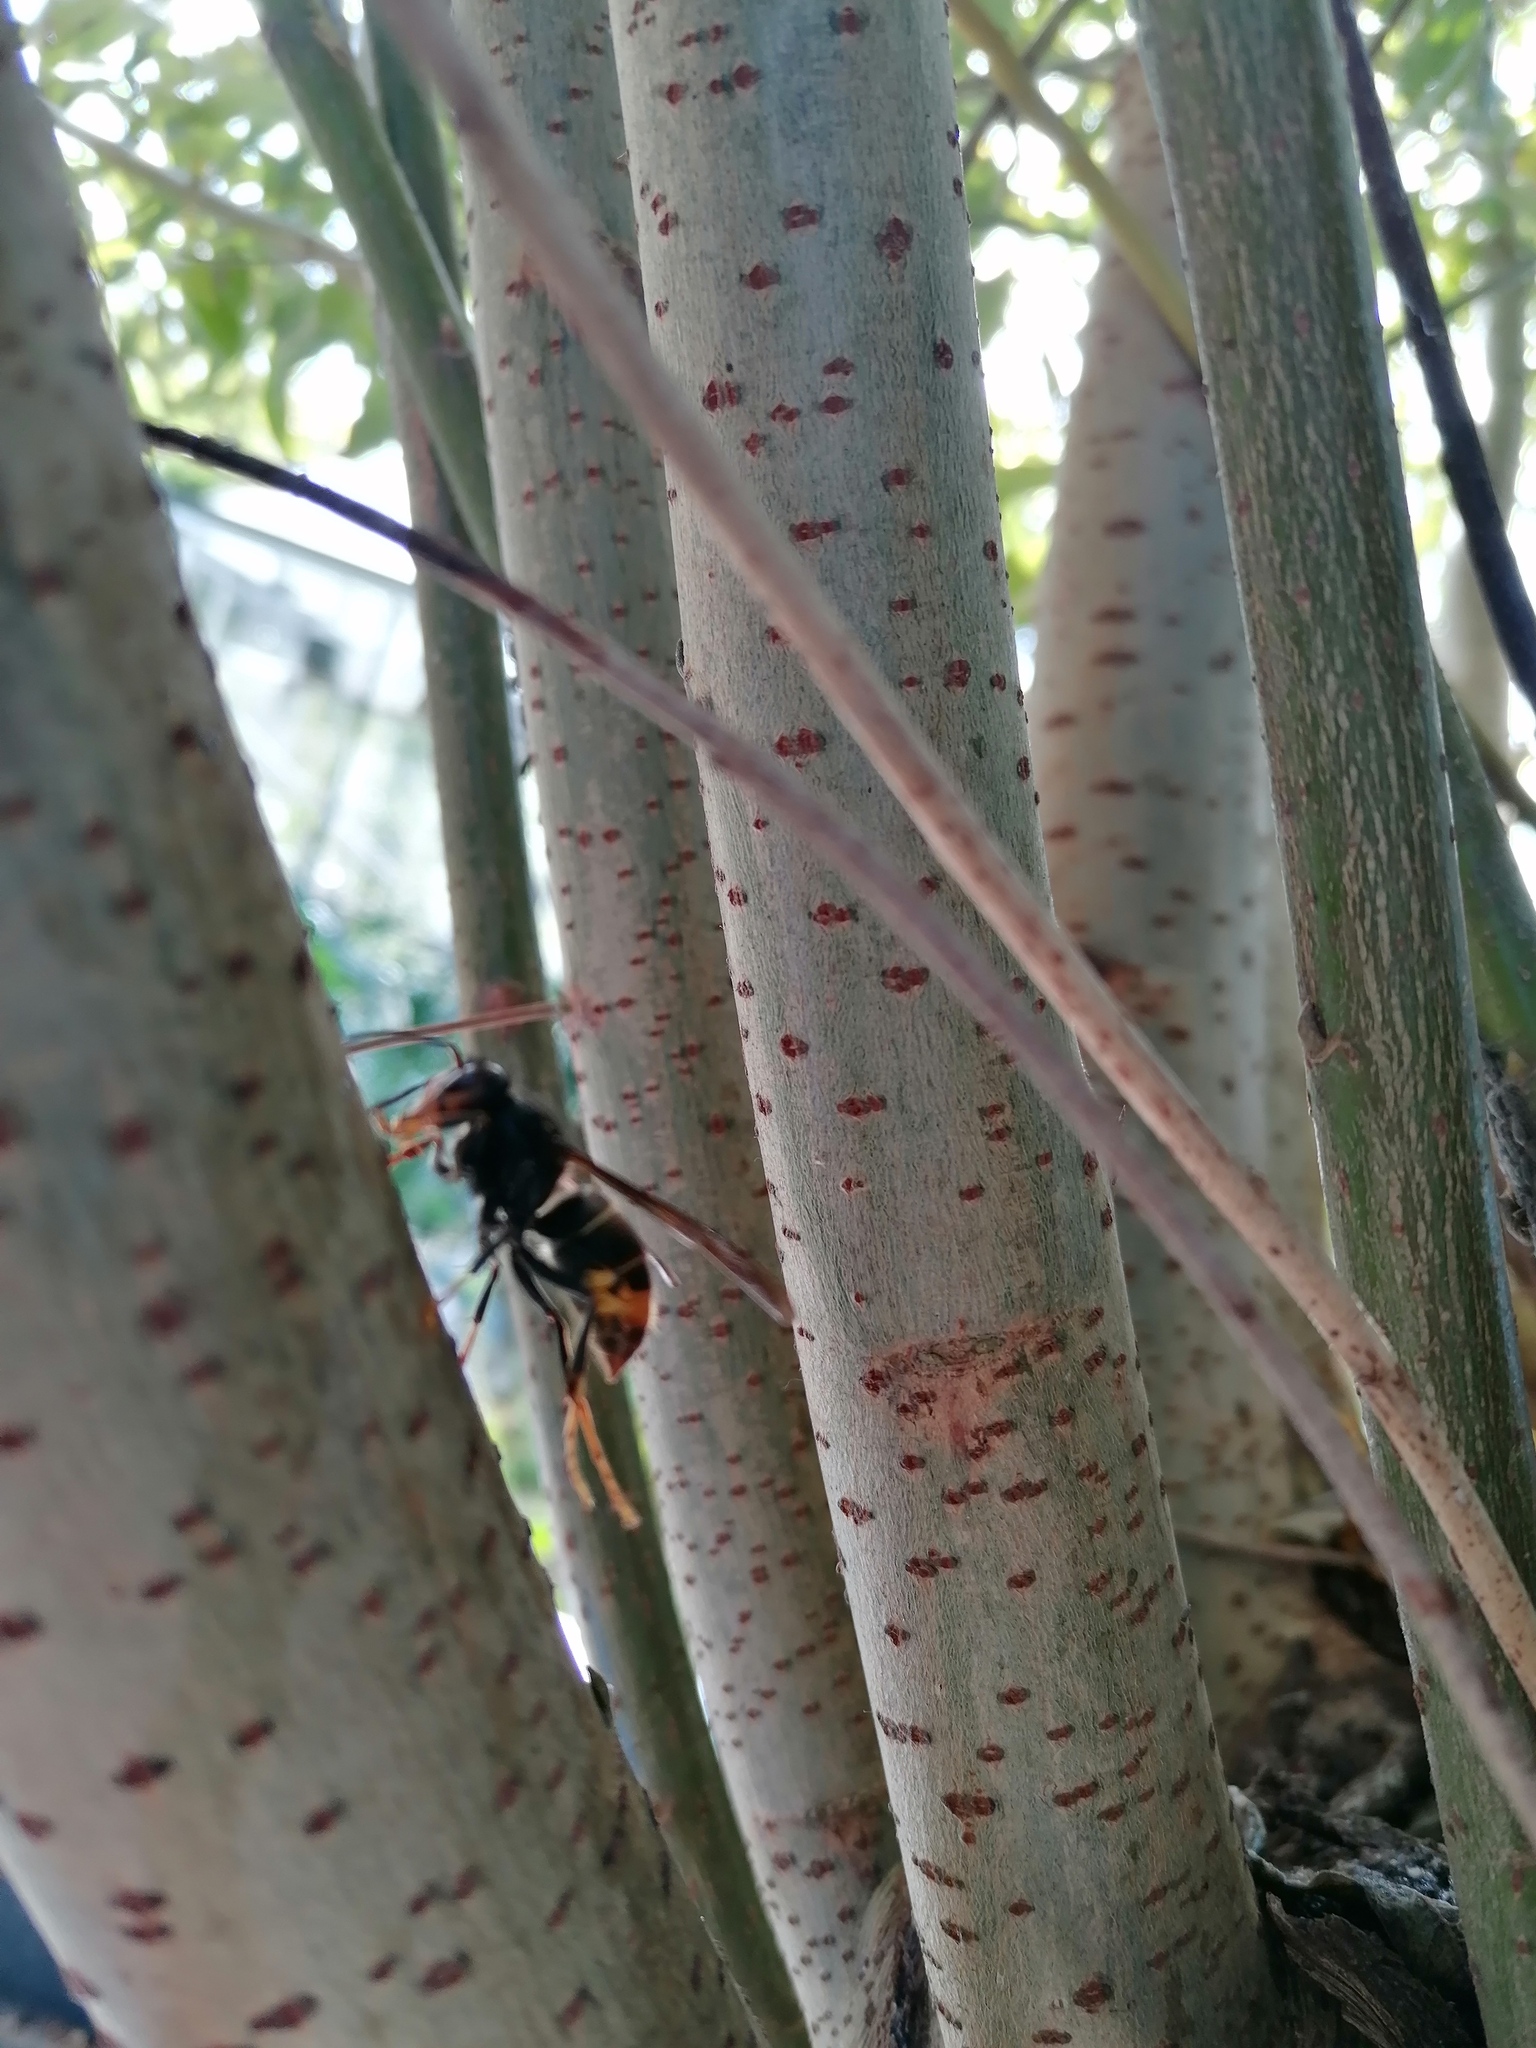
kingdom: Animalia
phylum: Arthropoda
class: Insecta
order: Hymenoptera
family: Vespidae
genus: Vespa
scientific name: Vespa velutina
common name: Asian hornet
